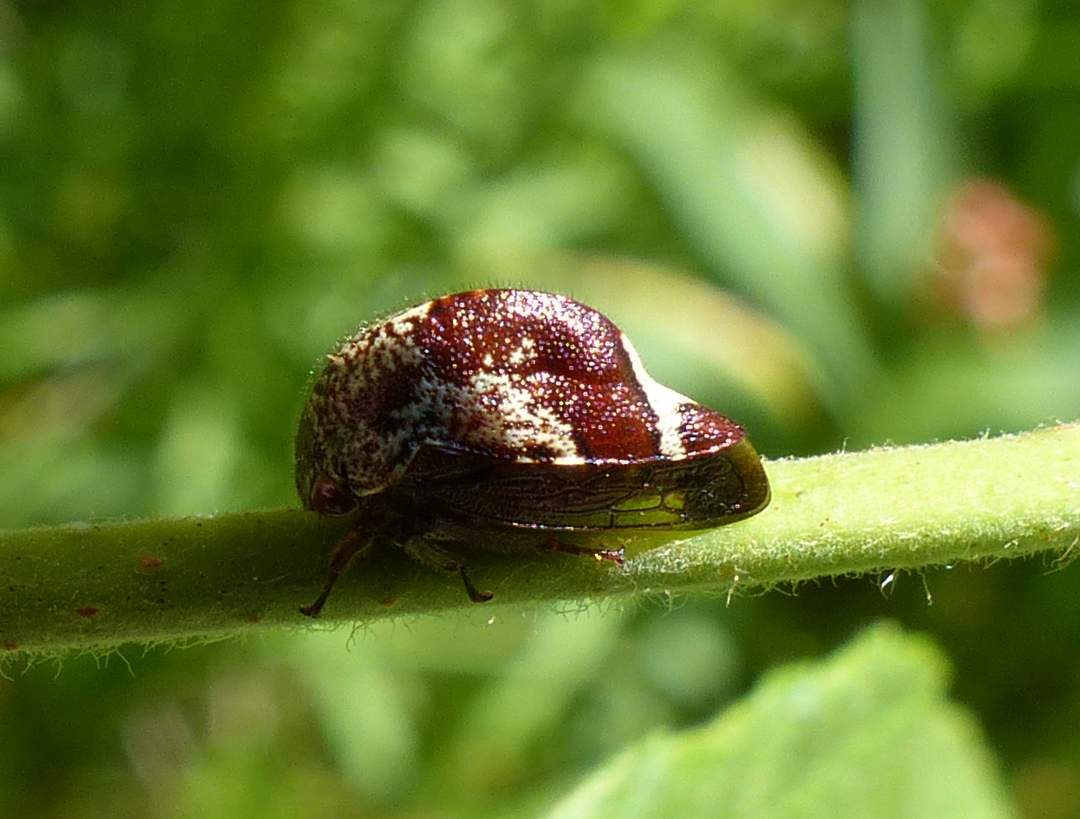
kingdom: Animalia
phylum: Arthropoda
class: Insecta
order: Hemiptera
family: Membracidae
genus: Carynota
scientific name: Carynota marmorata
